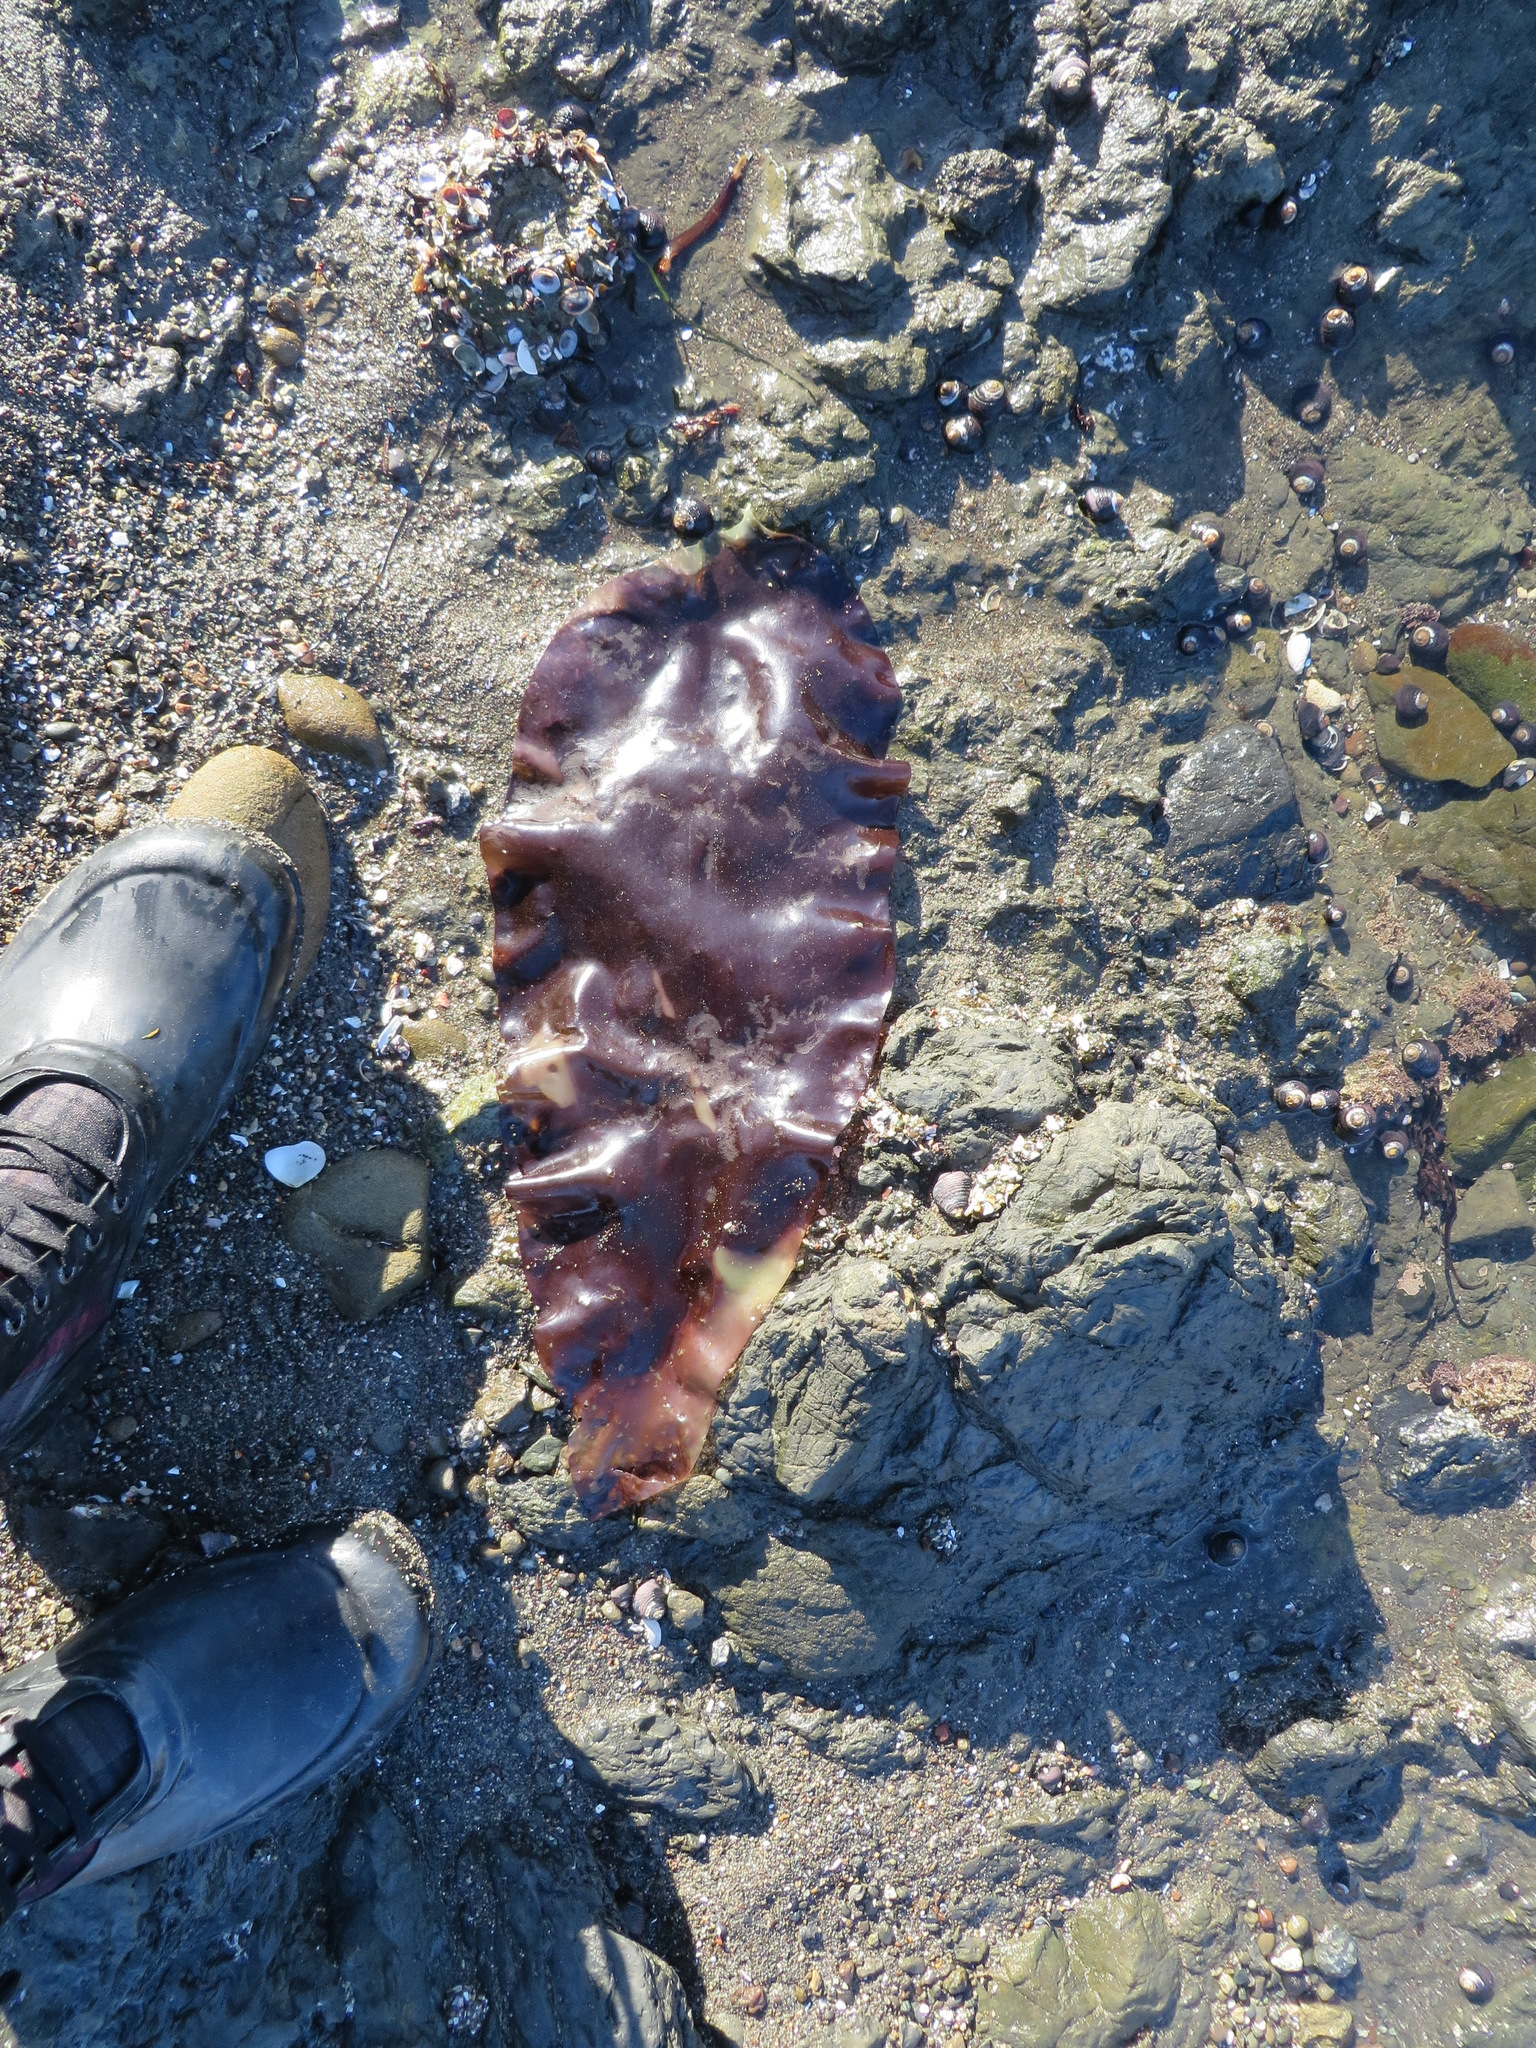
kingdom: Plantae
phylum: Rhodophyta
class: Florideophyceae
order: Gigartinales
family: Gigartinaceae
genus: Mazzaella
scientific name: Mazzaella splendens
